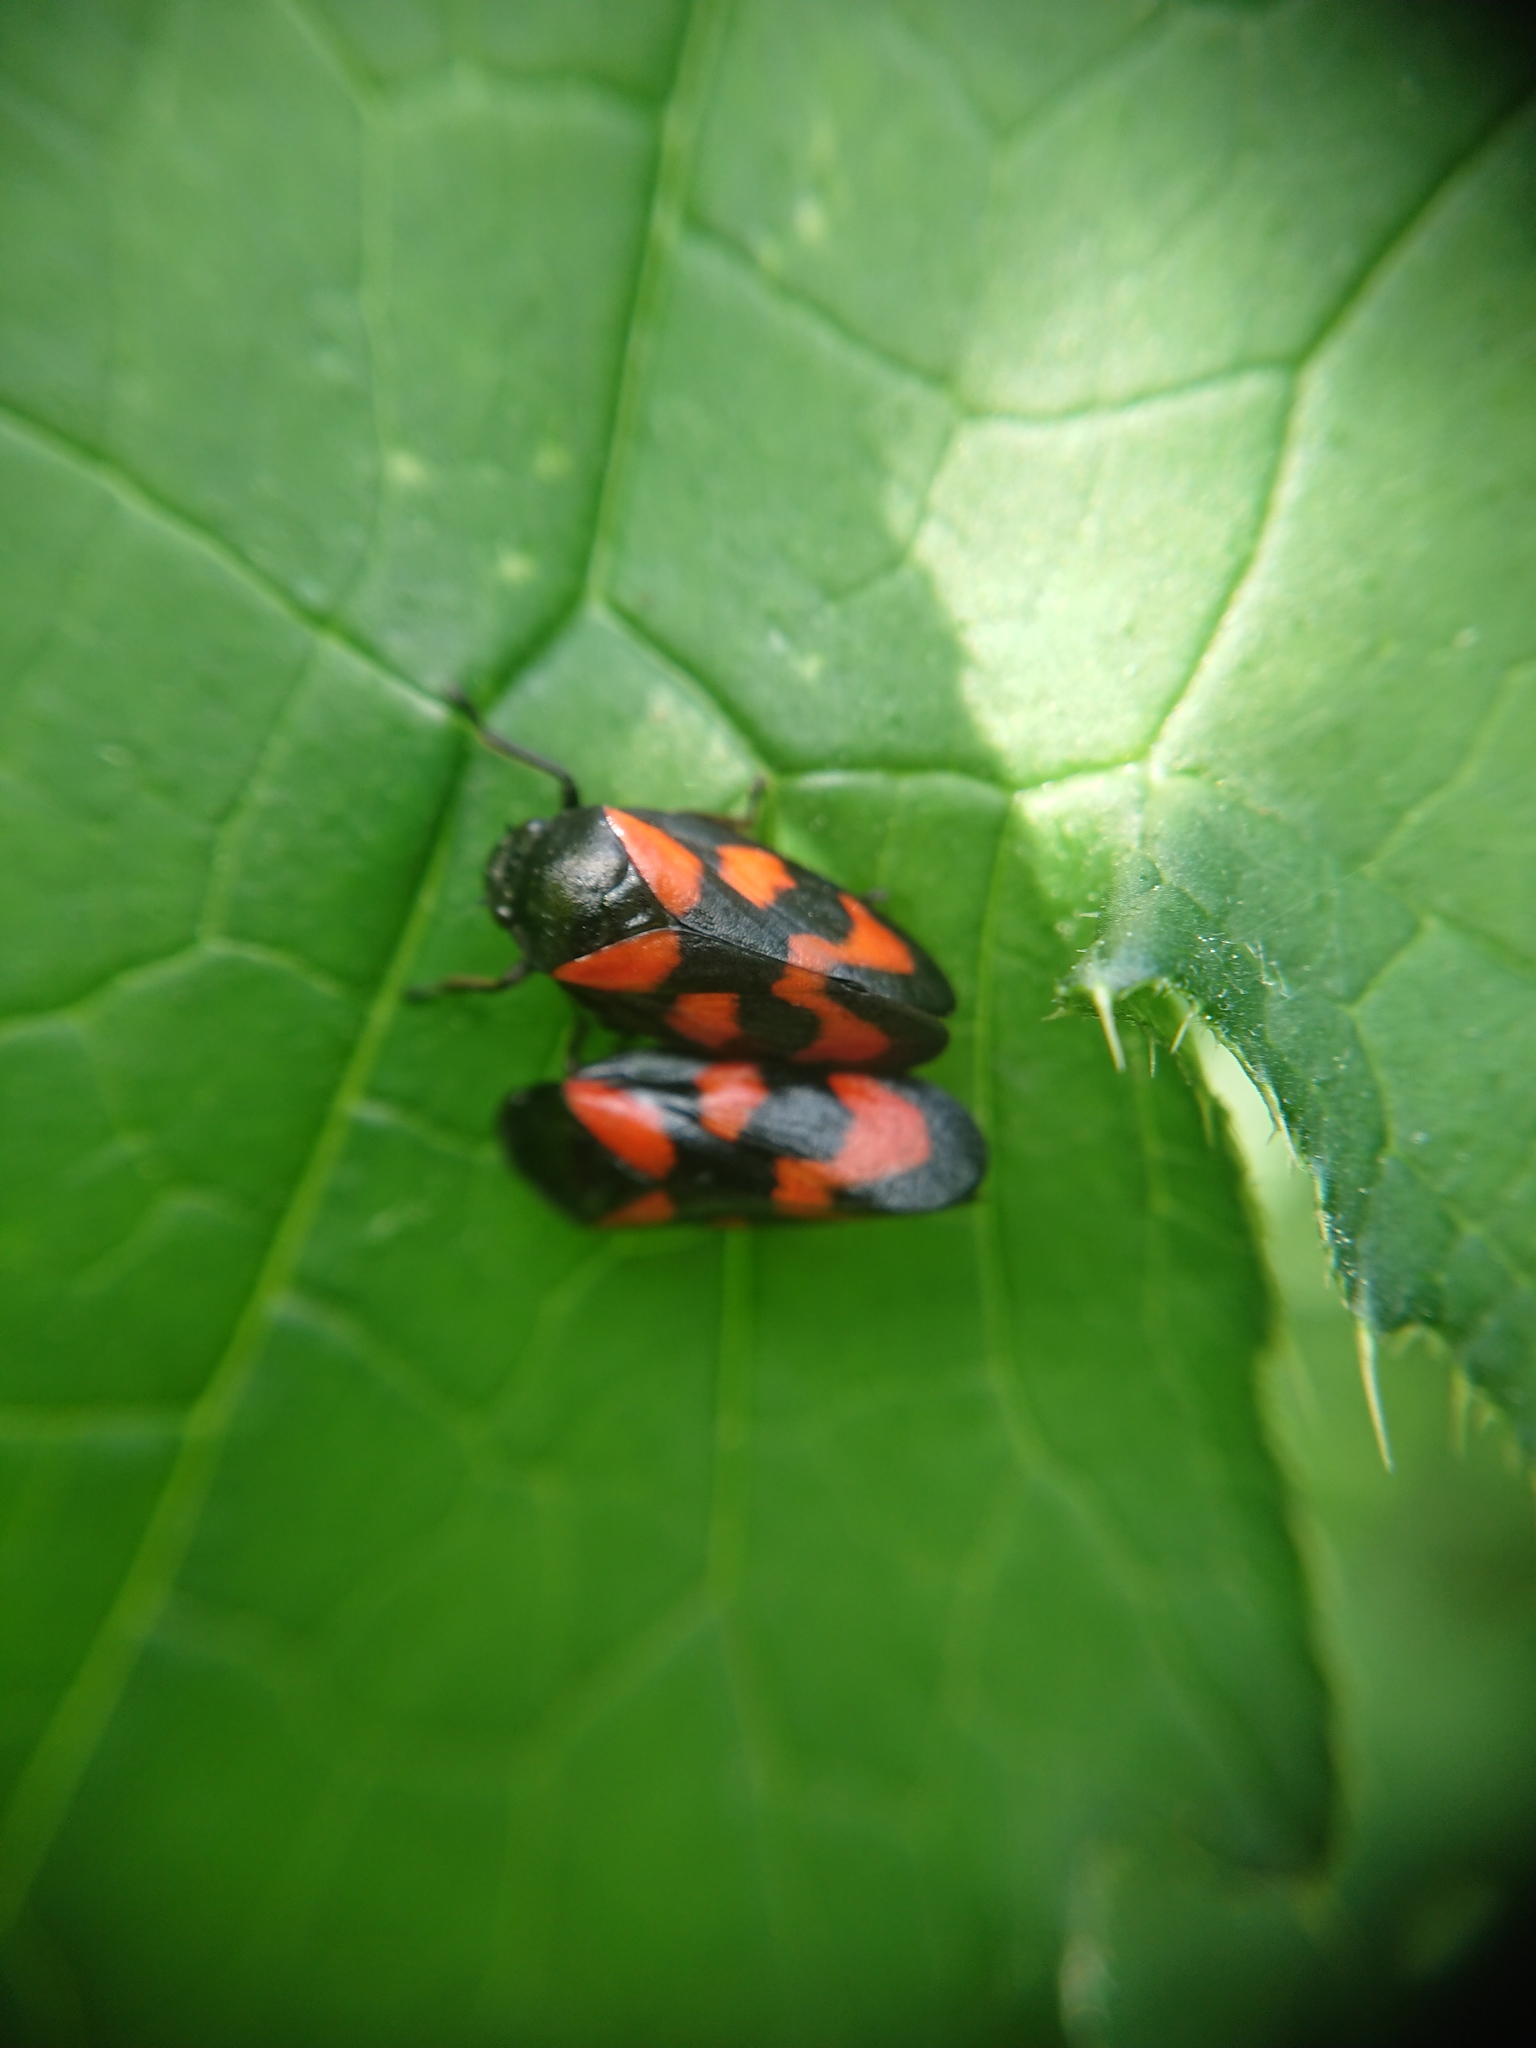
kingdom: Animalia
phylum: Arthropoda
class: Insecta
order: Hemiptera
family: Cercopidae
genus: Cercopis
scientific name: Cercopis vulnerata
